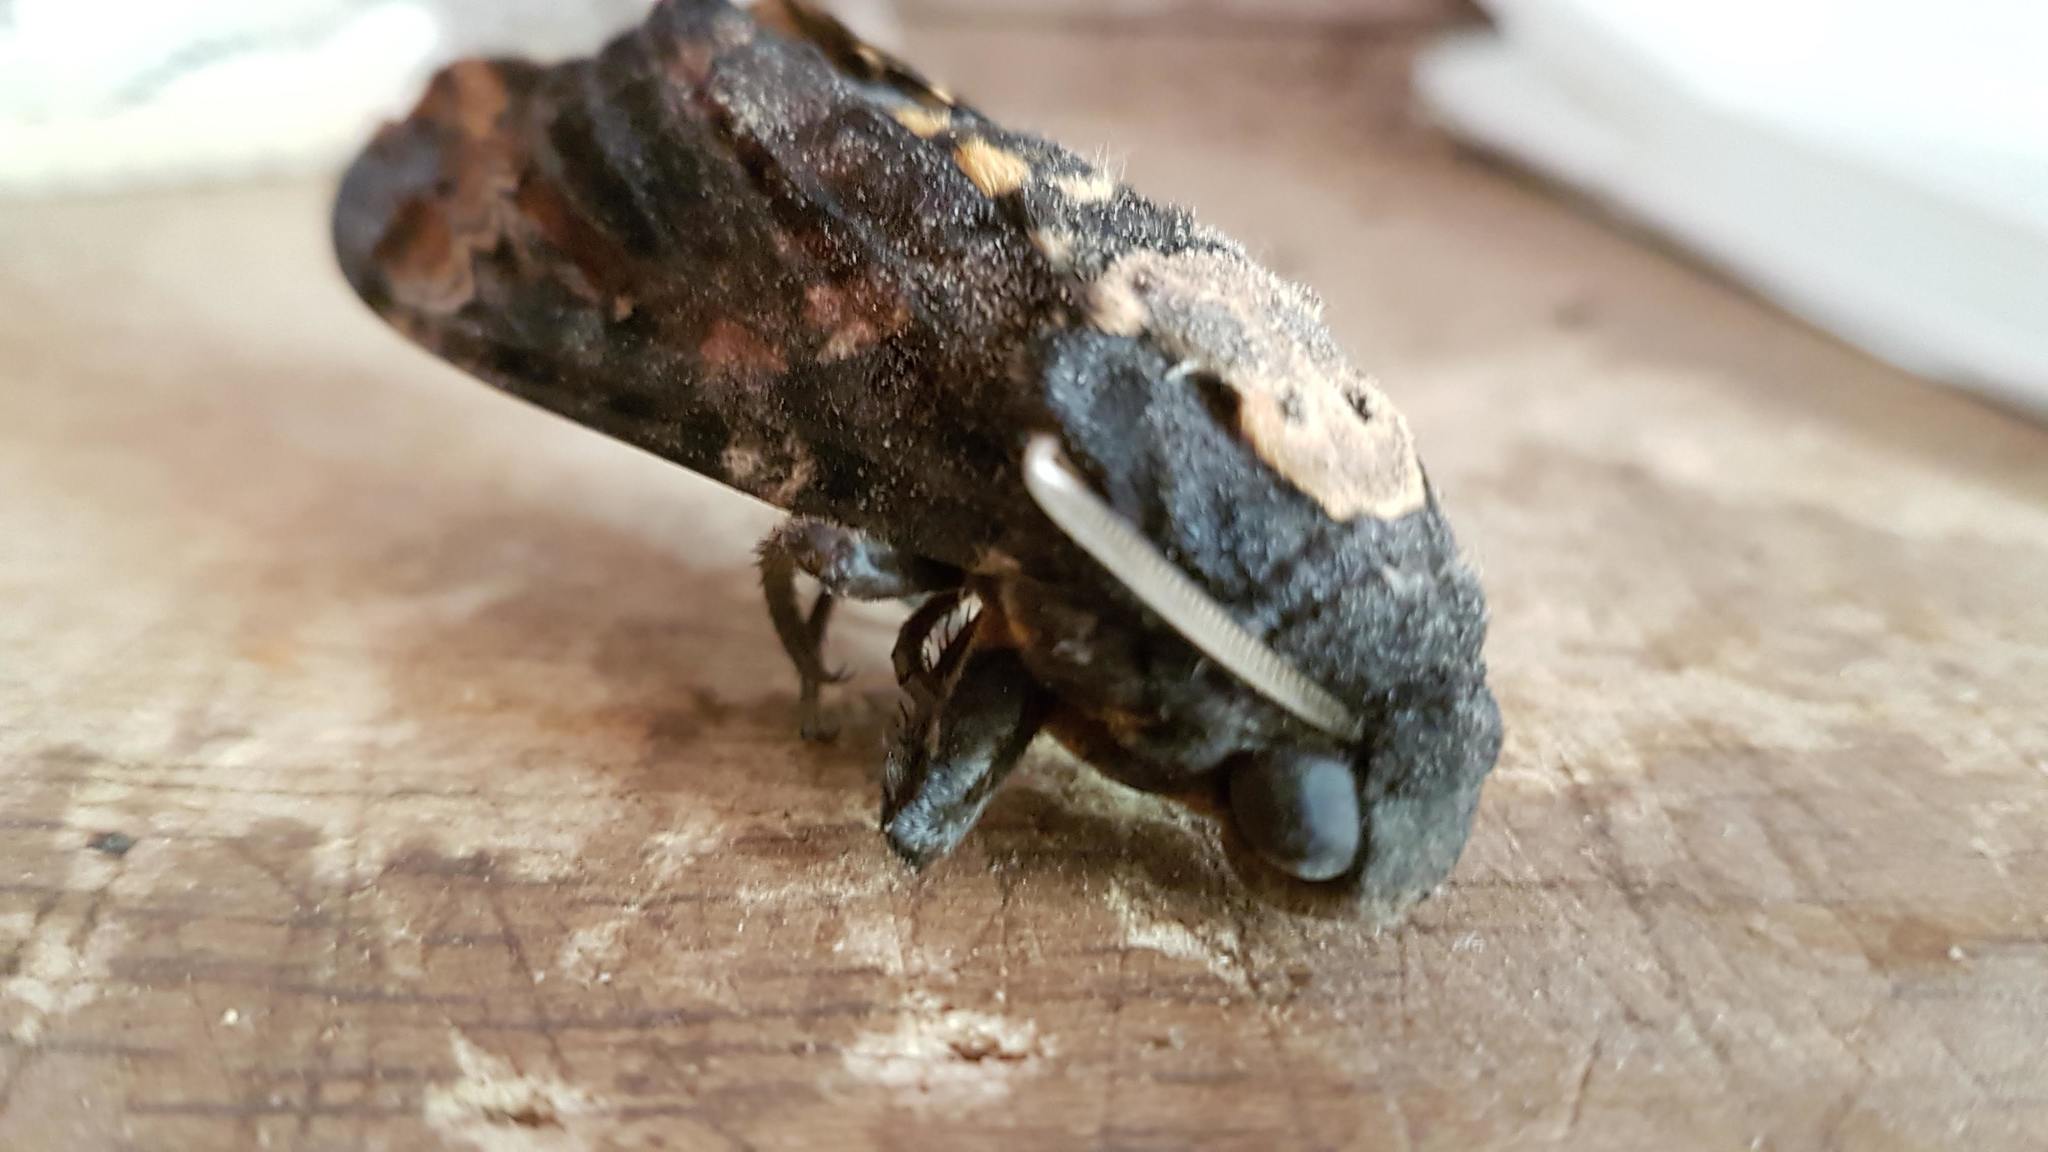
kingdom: Animalia
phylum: Arthropoda
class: Insecta
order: Lepidoptera
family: Sphingidae
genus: Acherontia
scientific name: Acherontia atropos
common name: Death's-head hawk moth
